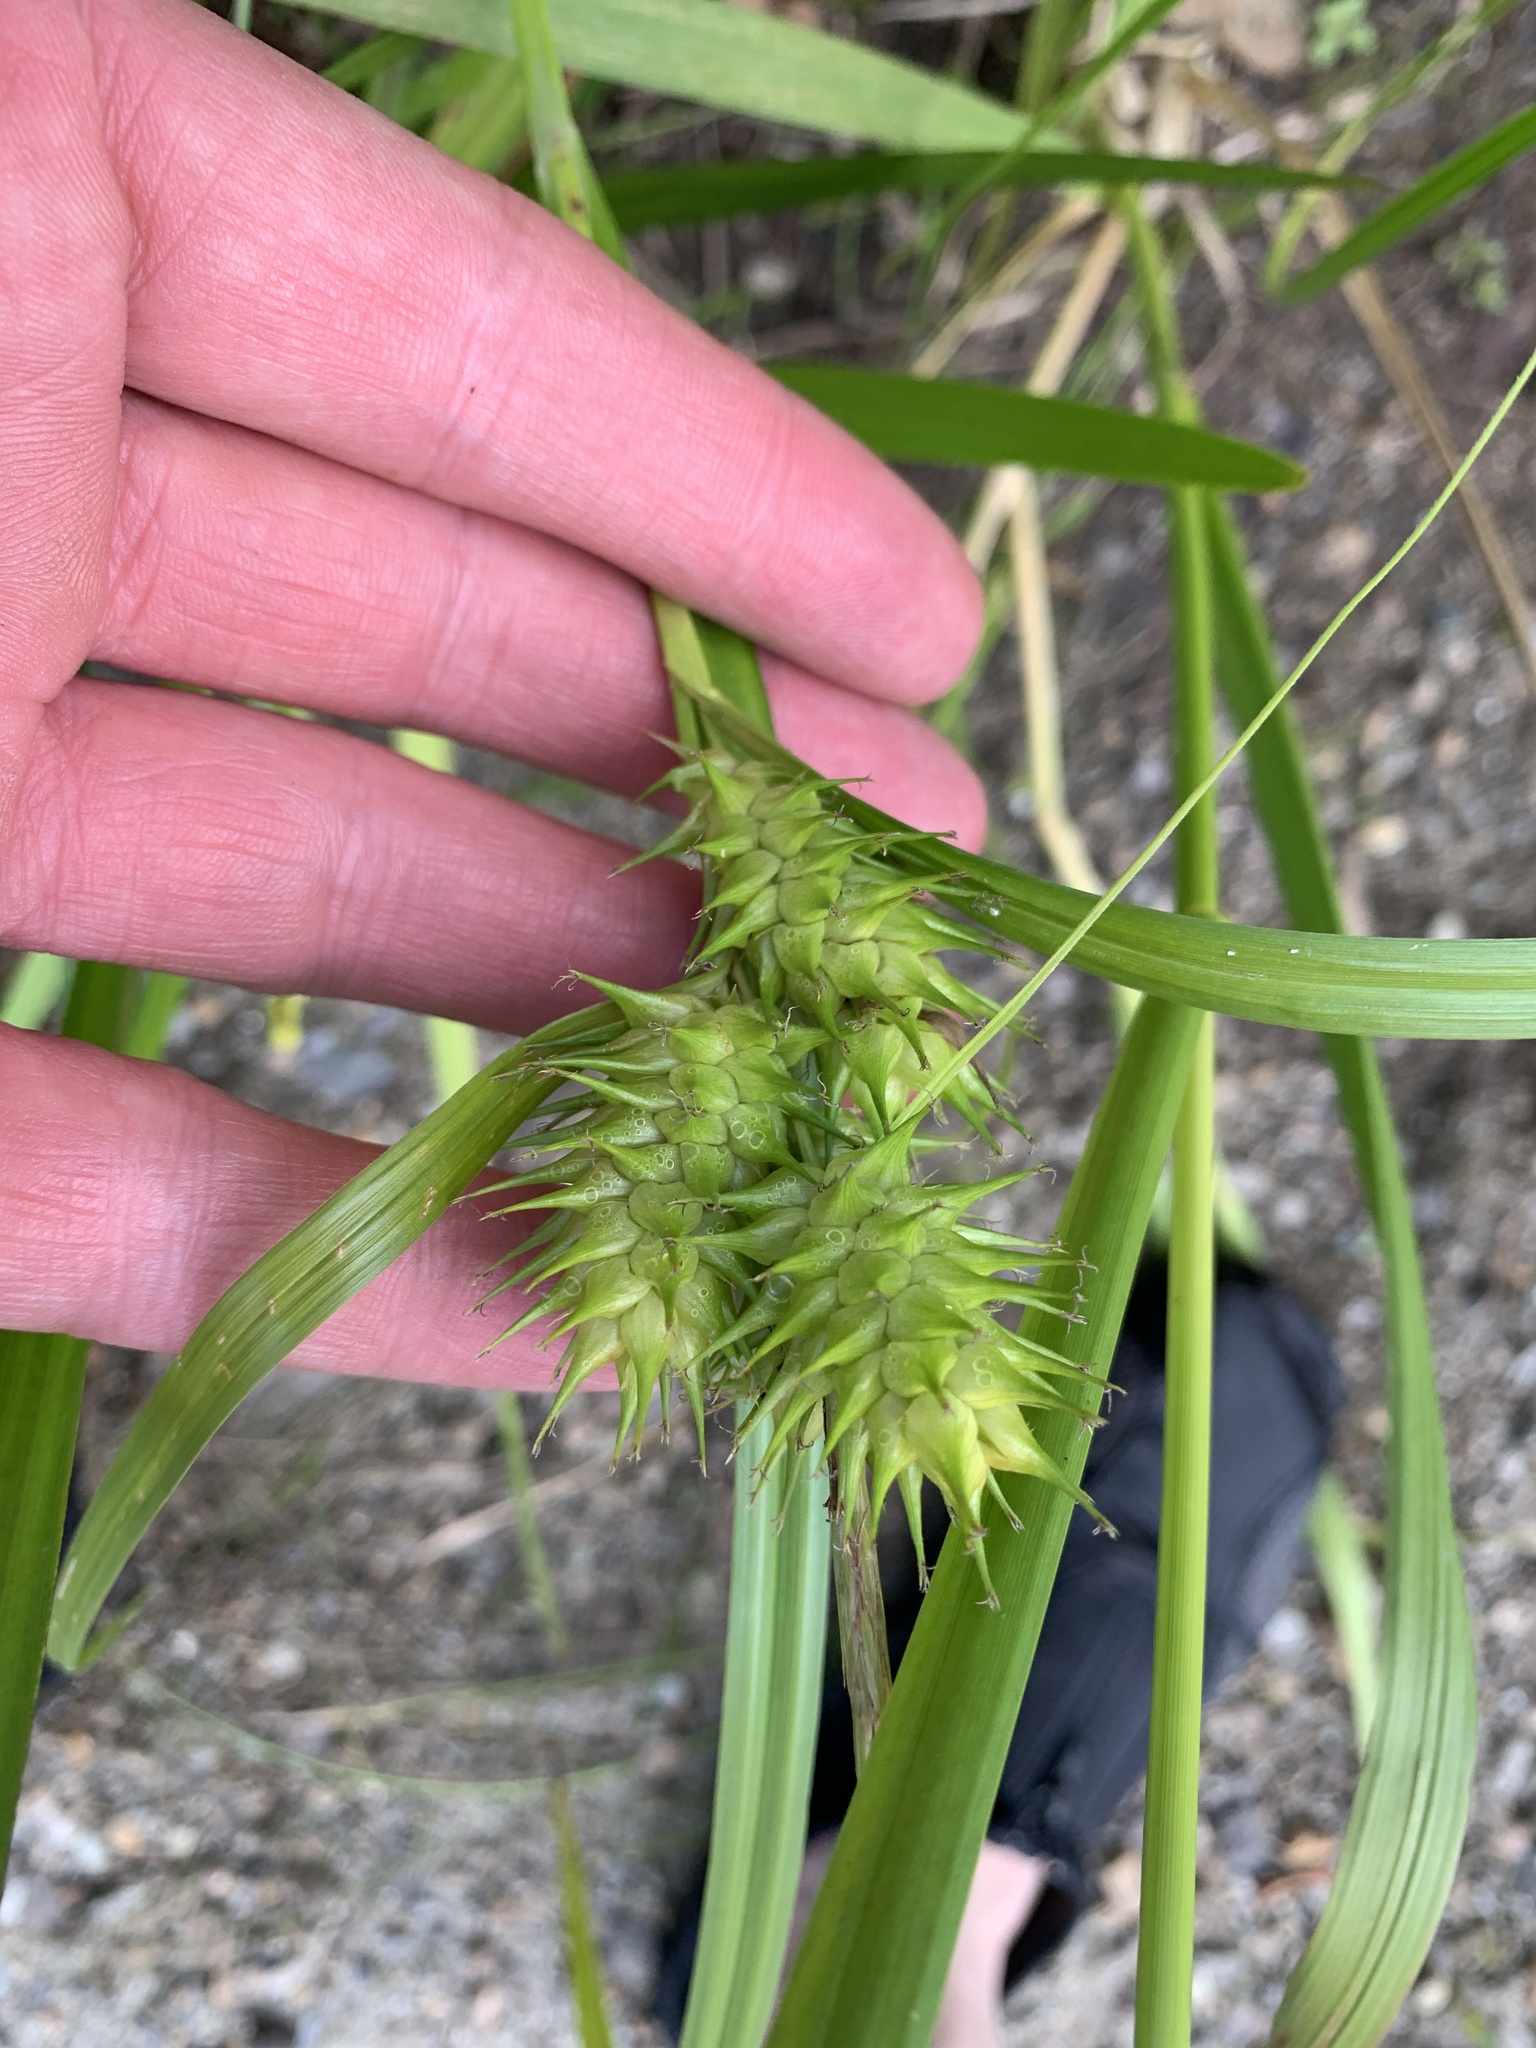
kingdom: Plantae
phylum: Tracheophyta
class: Liliopsida
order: Poales
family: Cyperaceae
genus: Carex
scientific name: Carex lupulina
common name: Hop sedge
